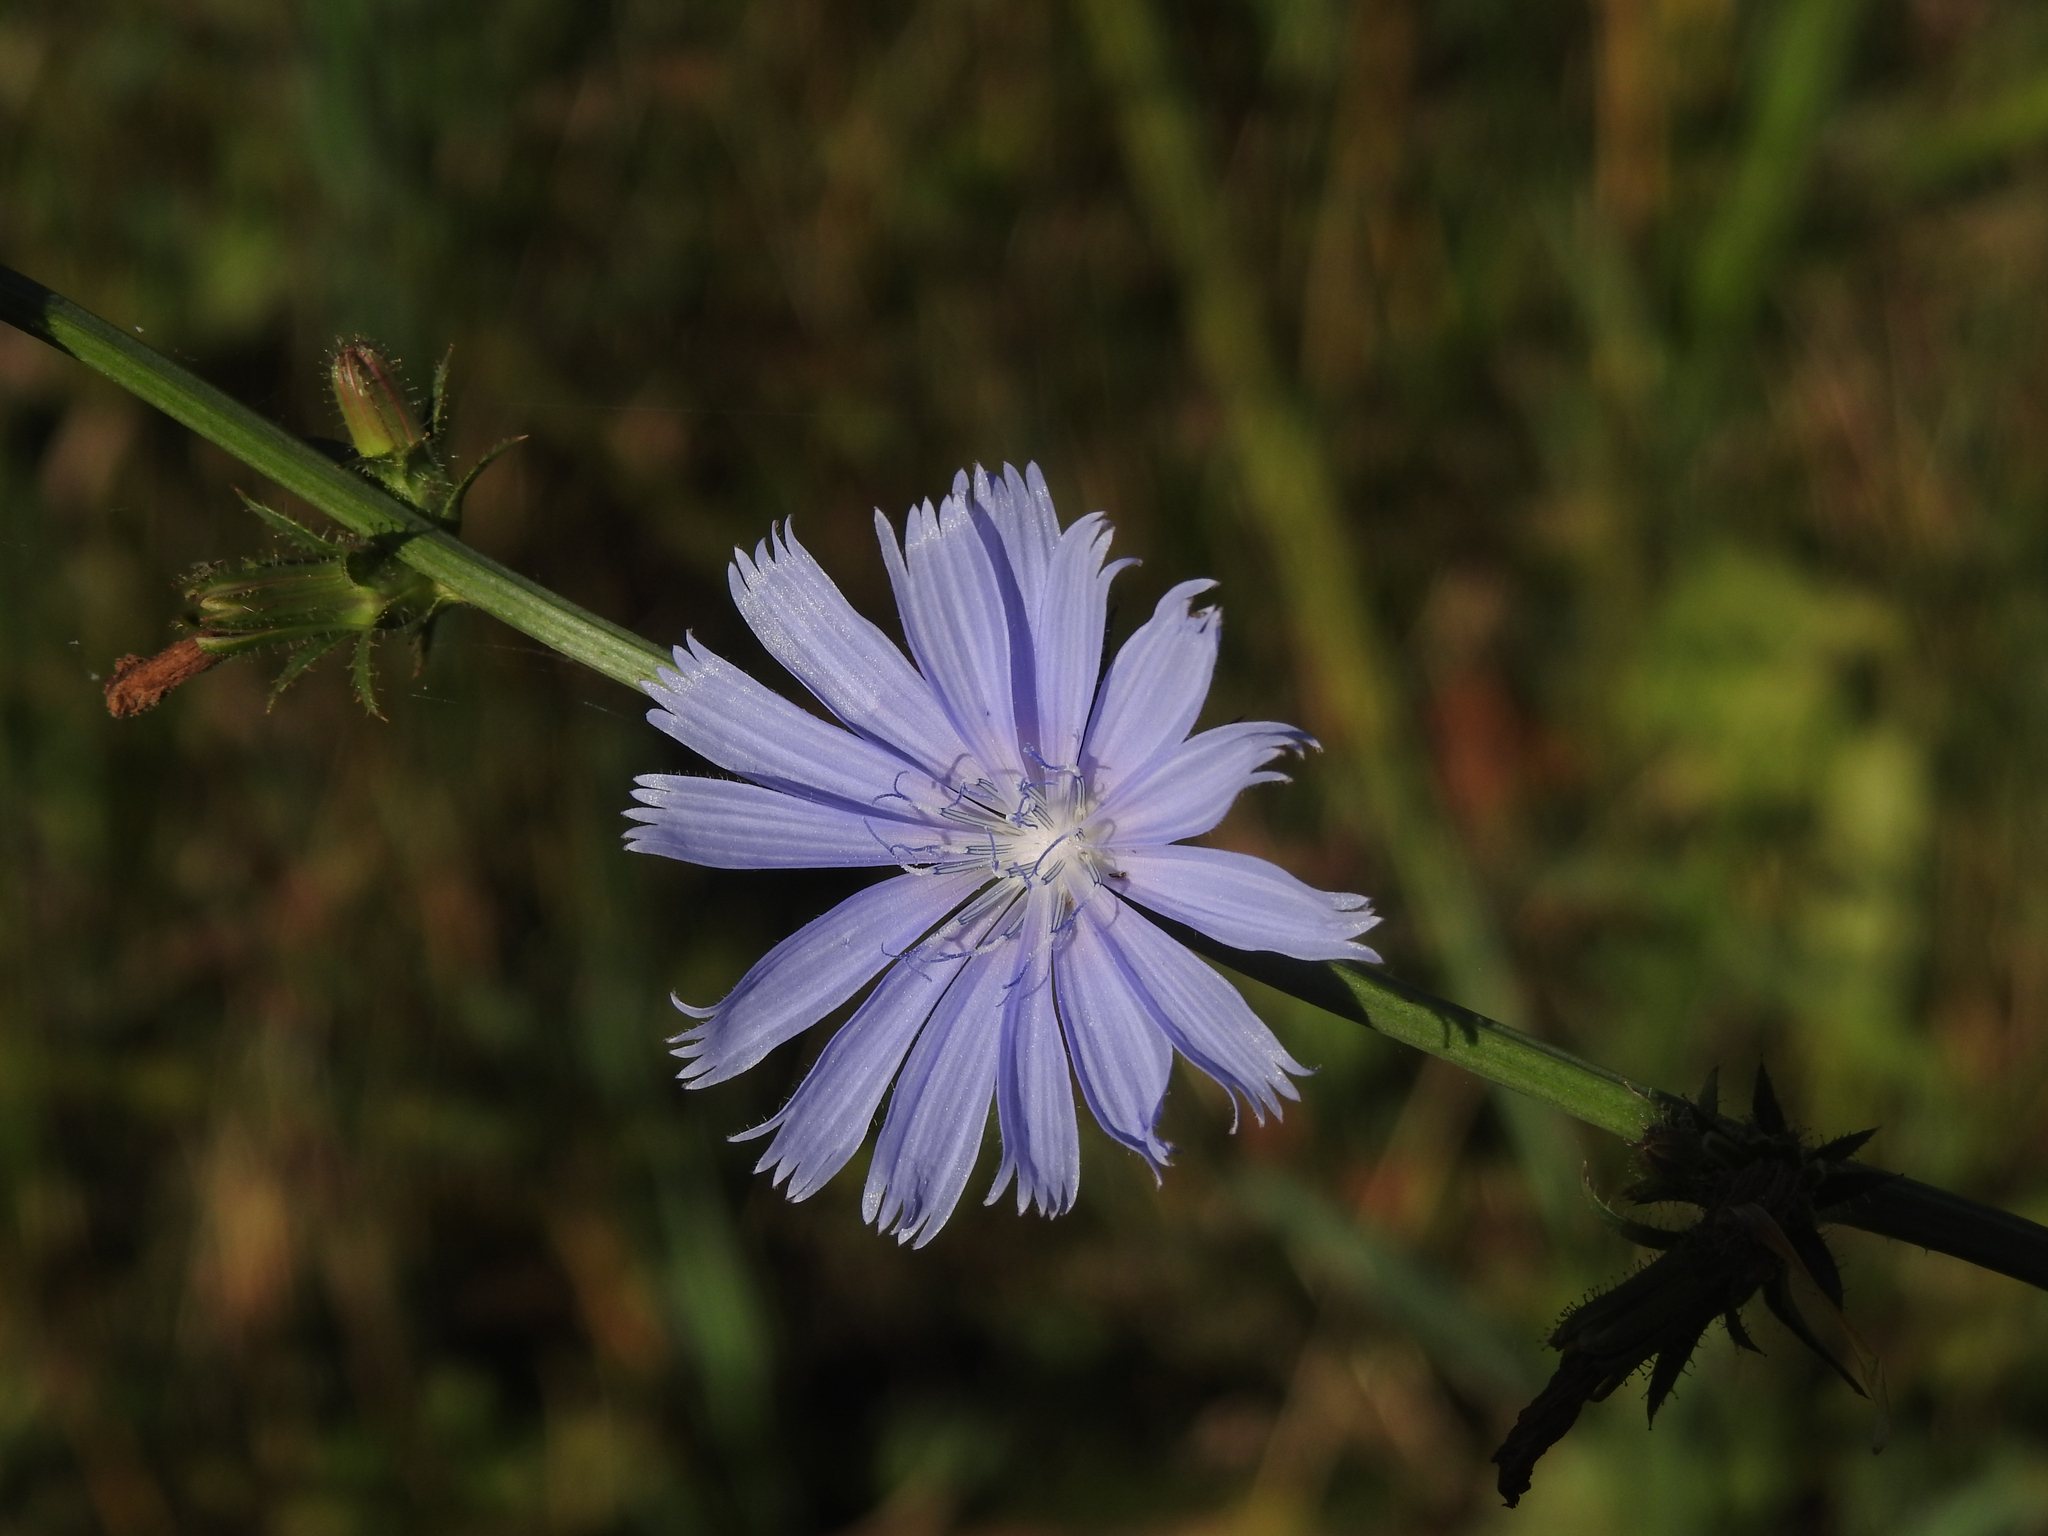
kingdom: Plantae
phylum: Tracheophyta
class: Magnoliopsida
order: Asterales
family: Asteraceae
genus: Cichorium
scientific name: Cichorium intybus
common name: Chicory
